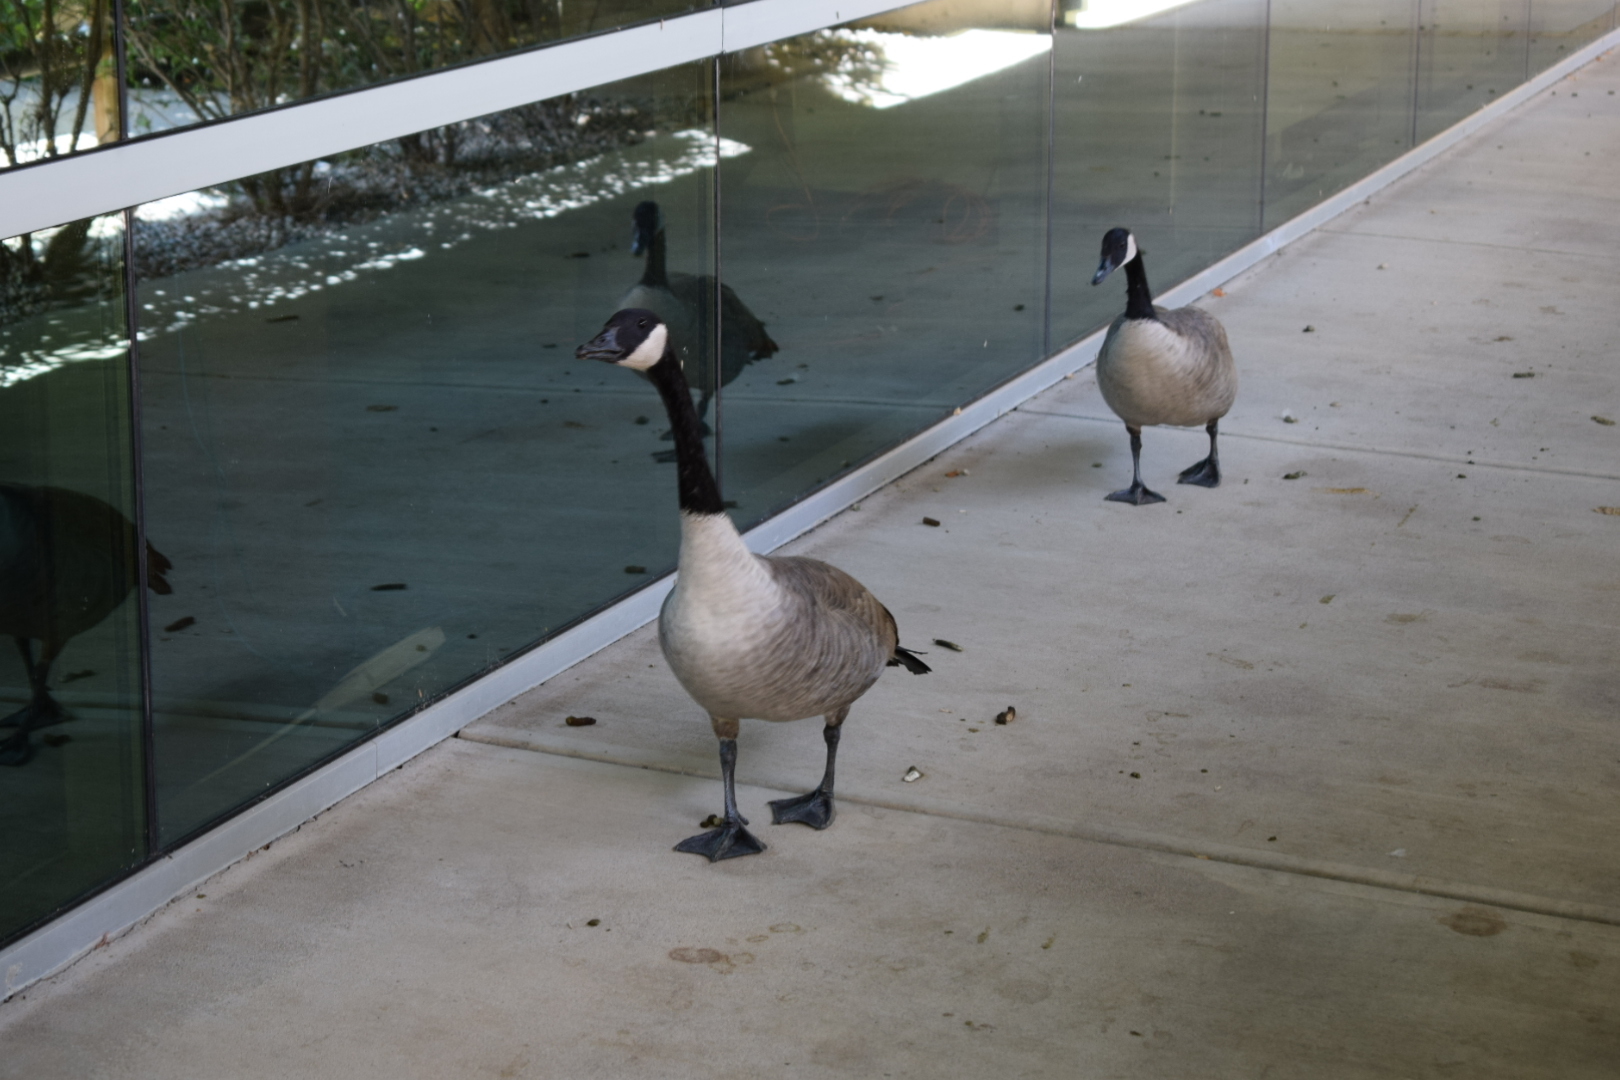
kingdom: Animalia
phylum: Chordata
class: Aves
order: Anseriformes
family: Anatidae
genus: Branta
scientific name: Branta canadensis
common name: Canada goose
